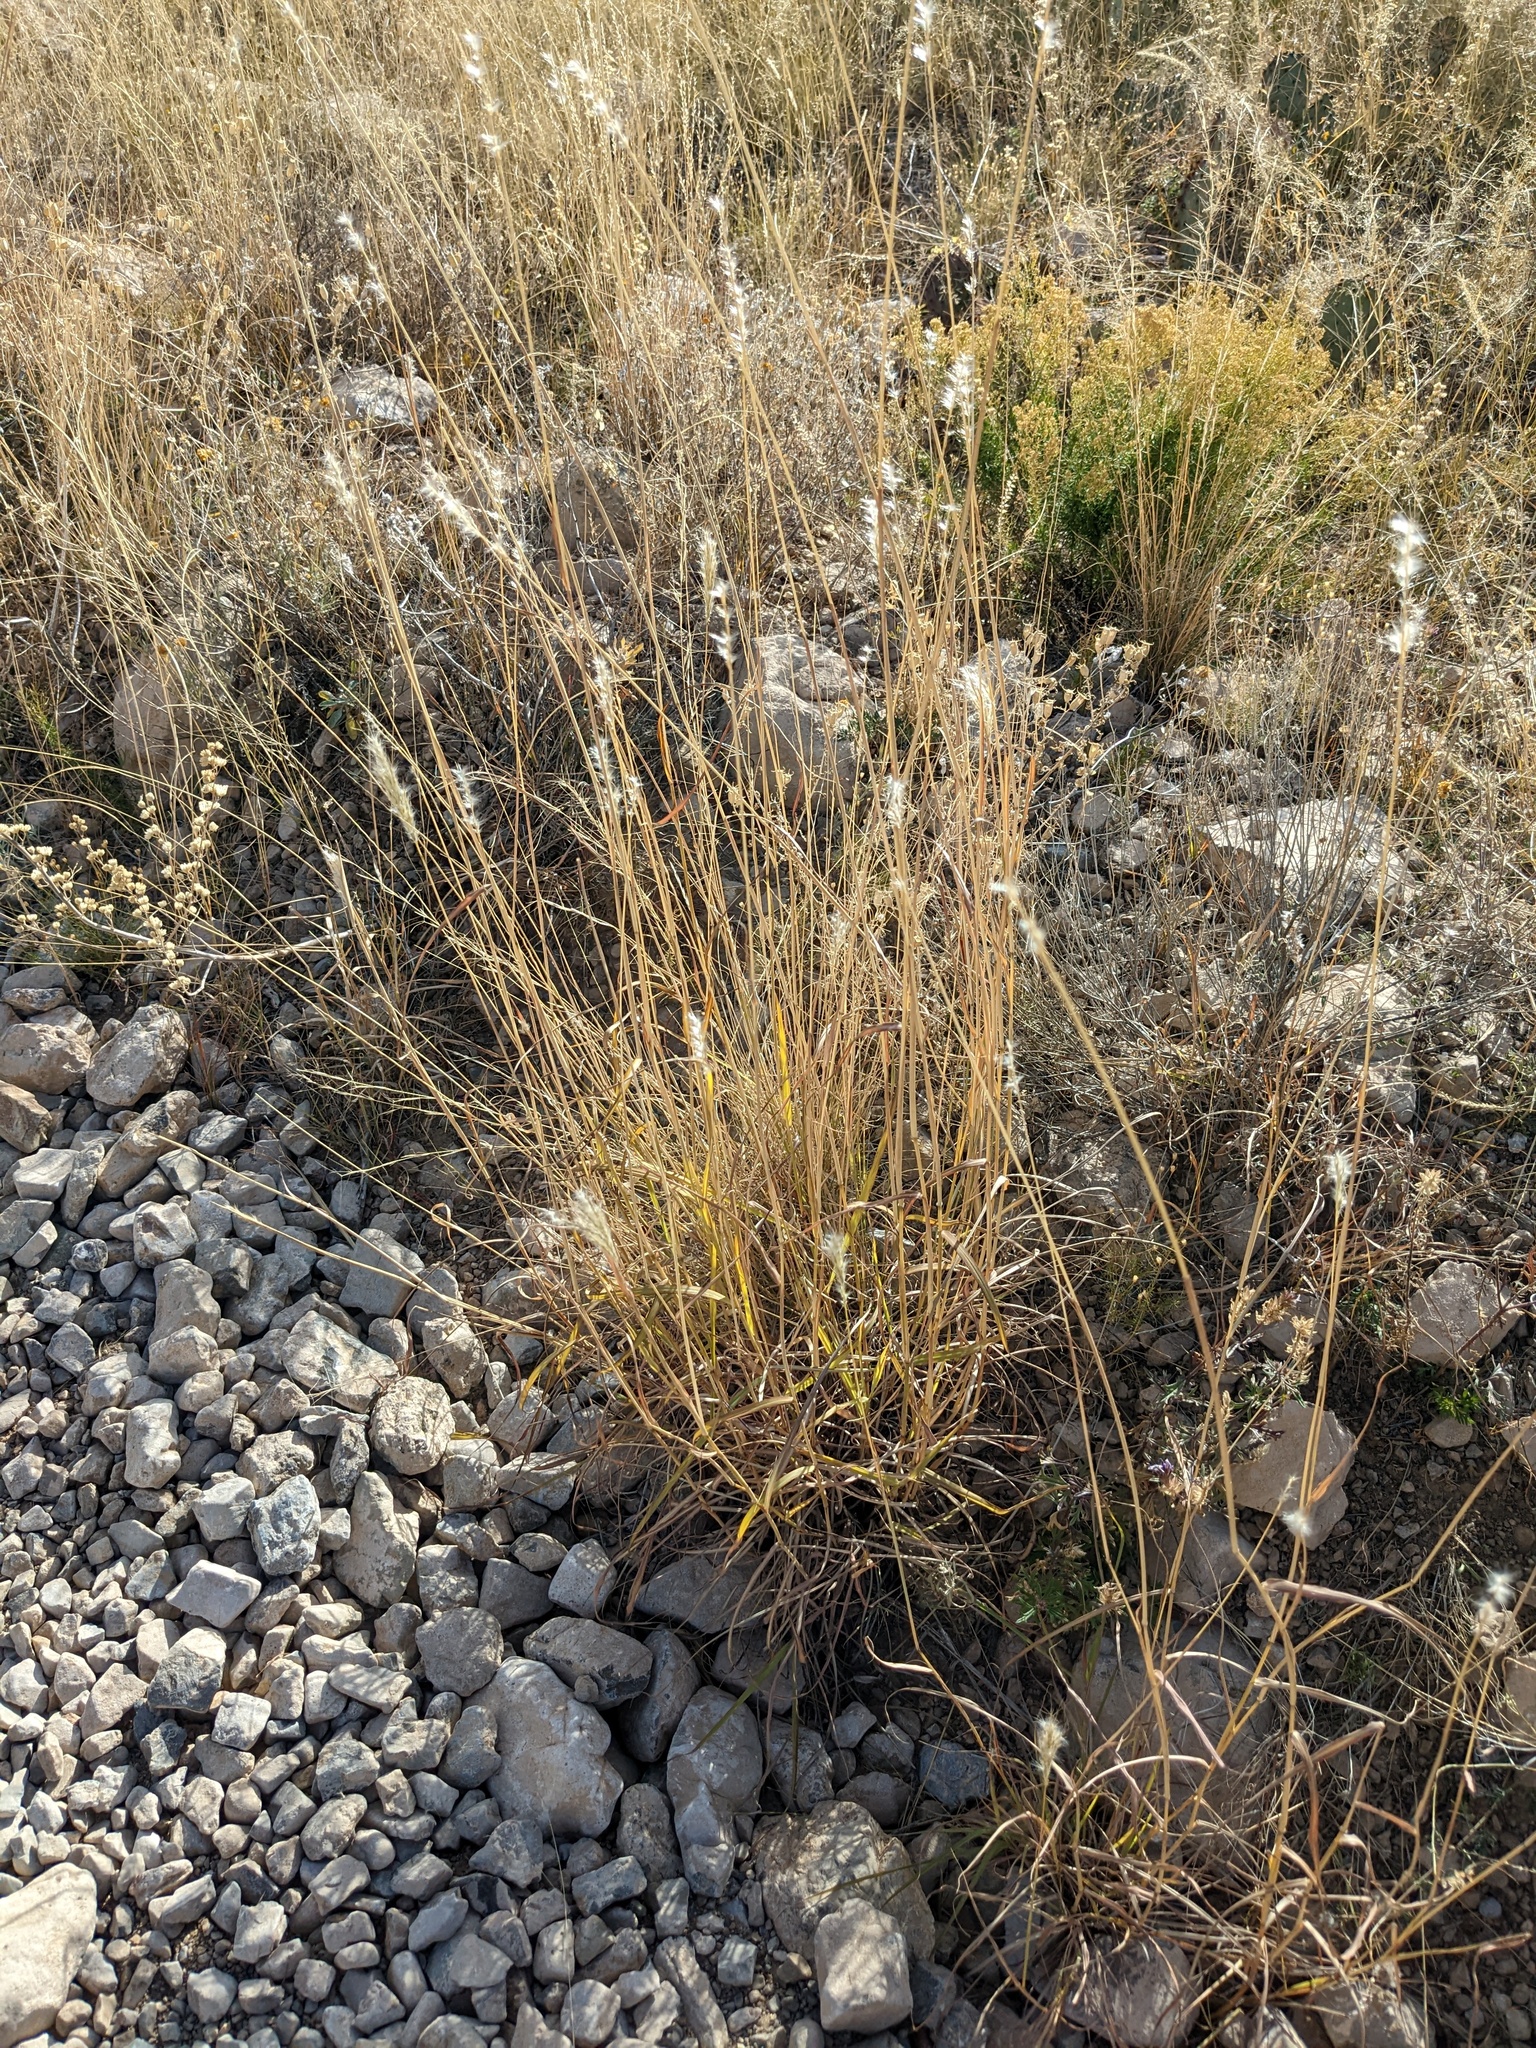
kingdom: Plantae
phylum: Tracheophyta
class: Liliopsida
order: Poales
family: Poaceae
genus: Bothriochloa
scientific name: Bothriochloa barbinodis
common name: Cane bluestem
